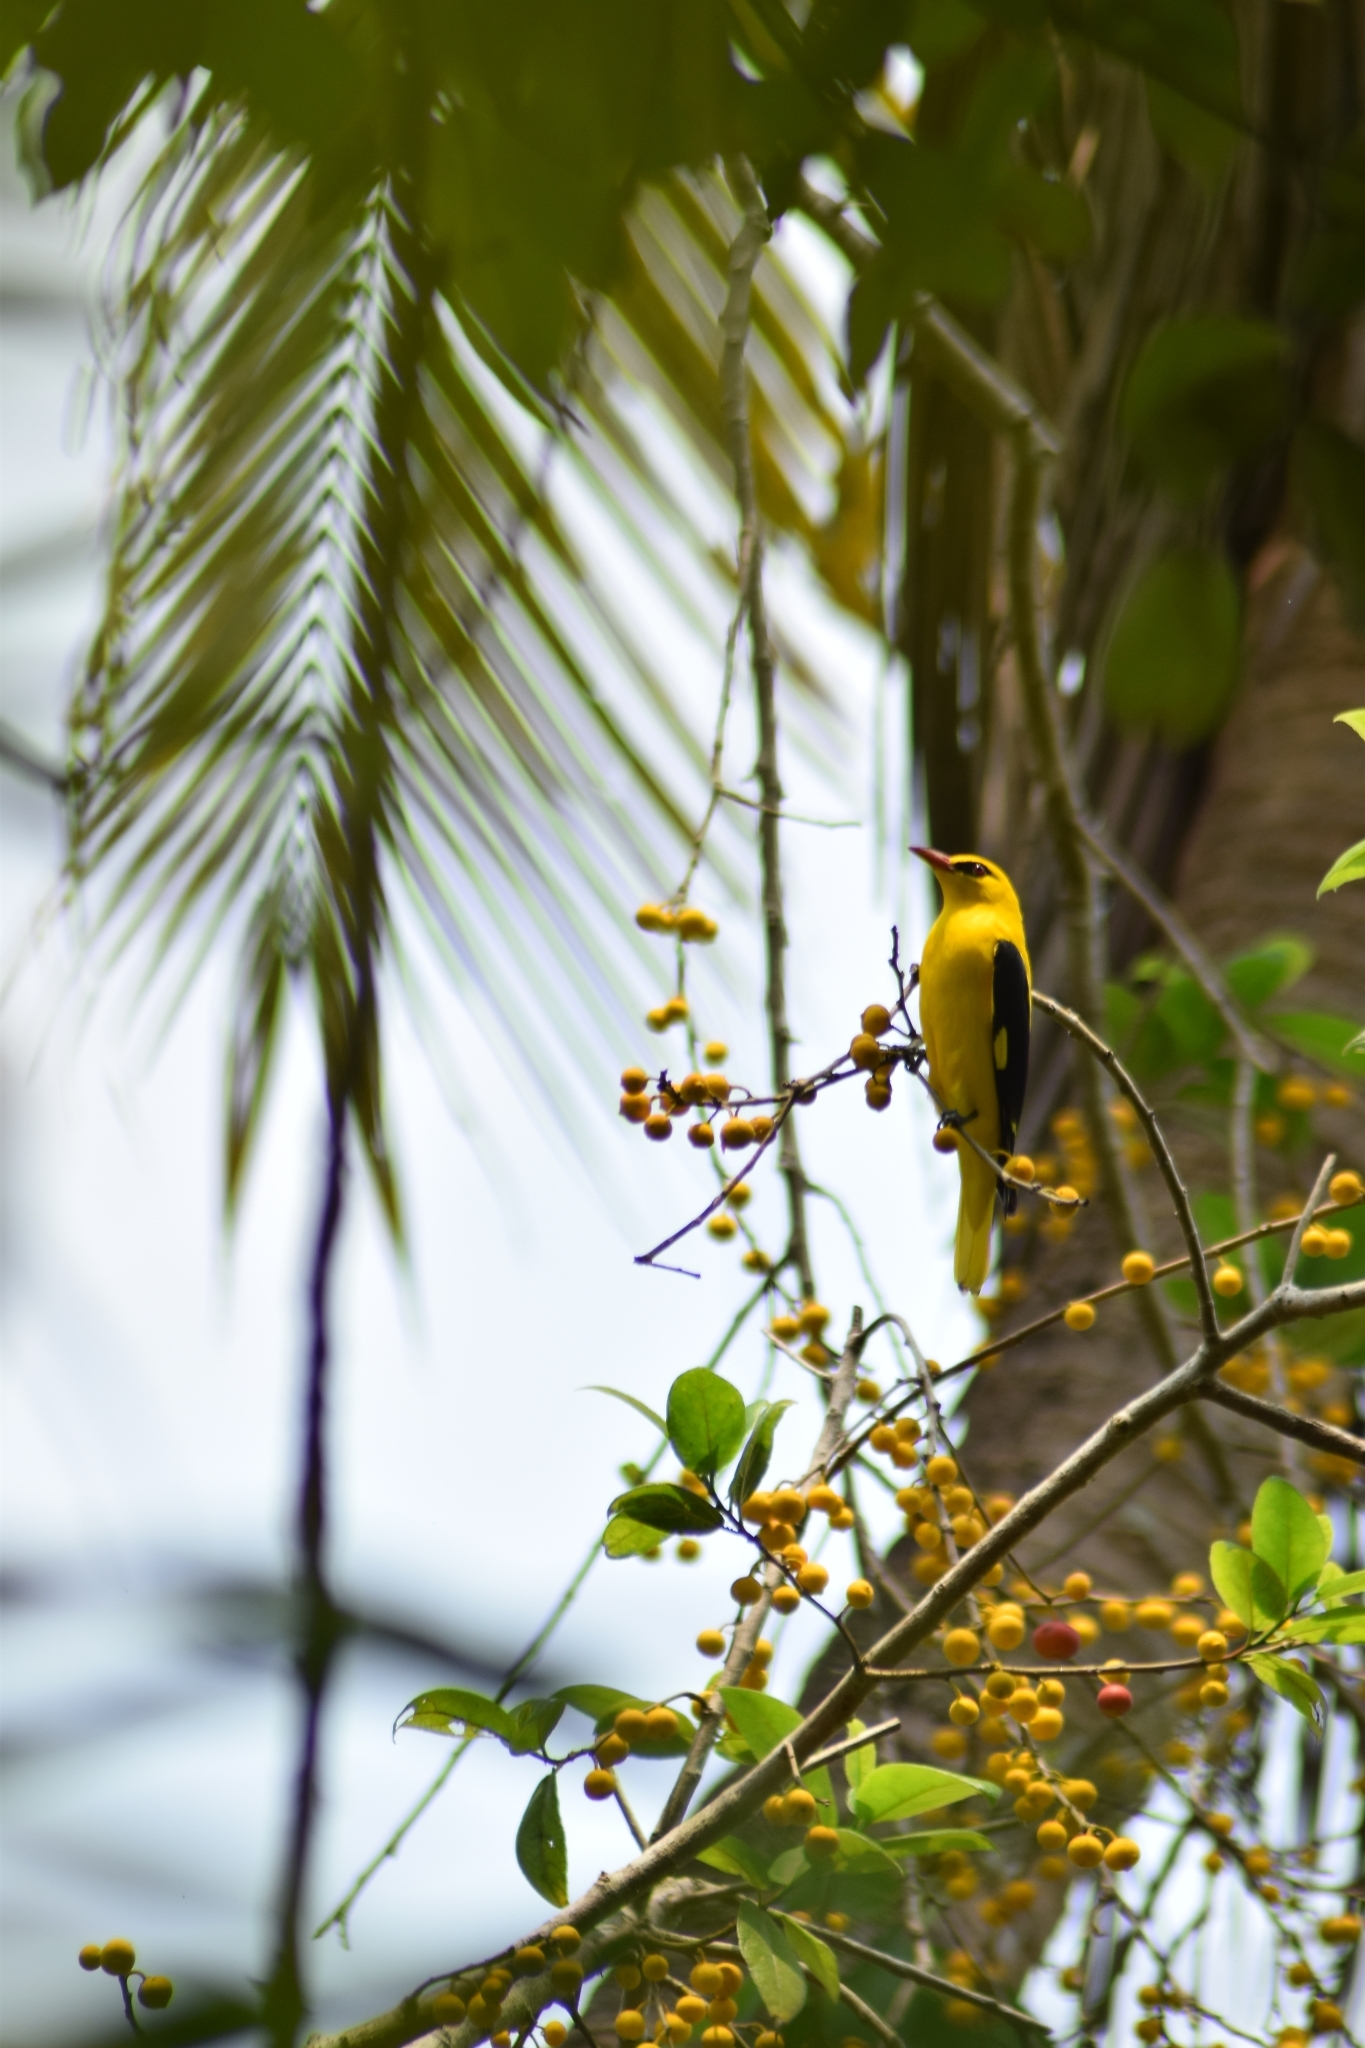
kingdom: Animalia
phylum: Chordata
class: Aves
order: Passeriformes
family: Oriolidae
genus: Oriolus
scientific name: Oriolus kundoo
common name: Indian golden oriole
